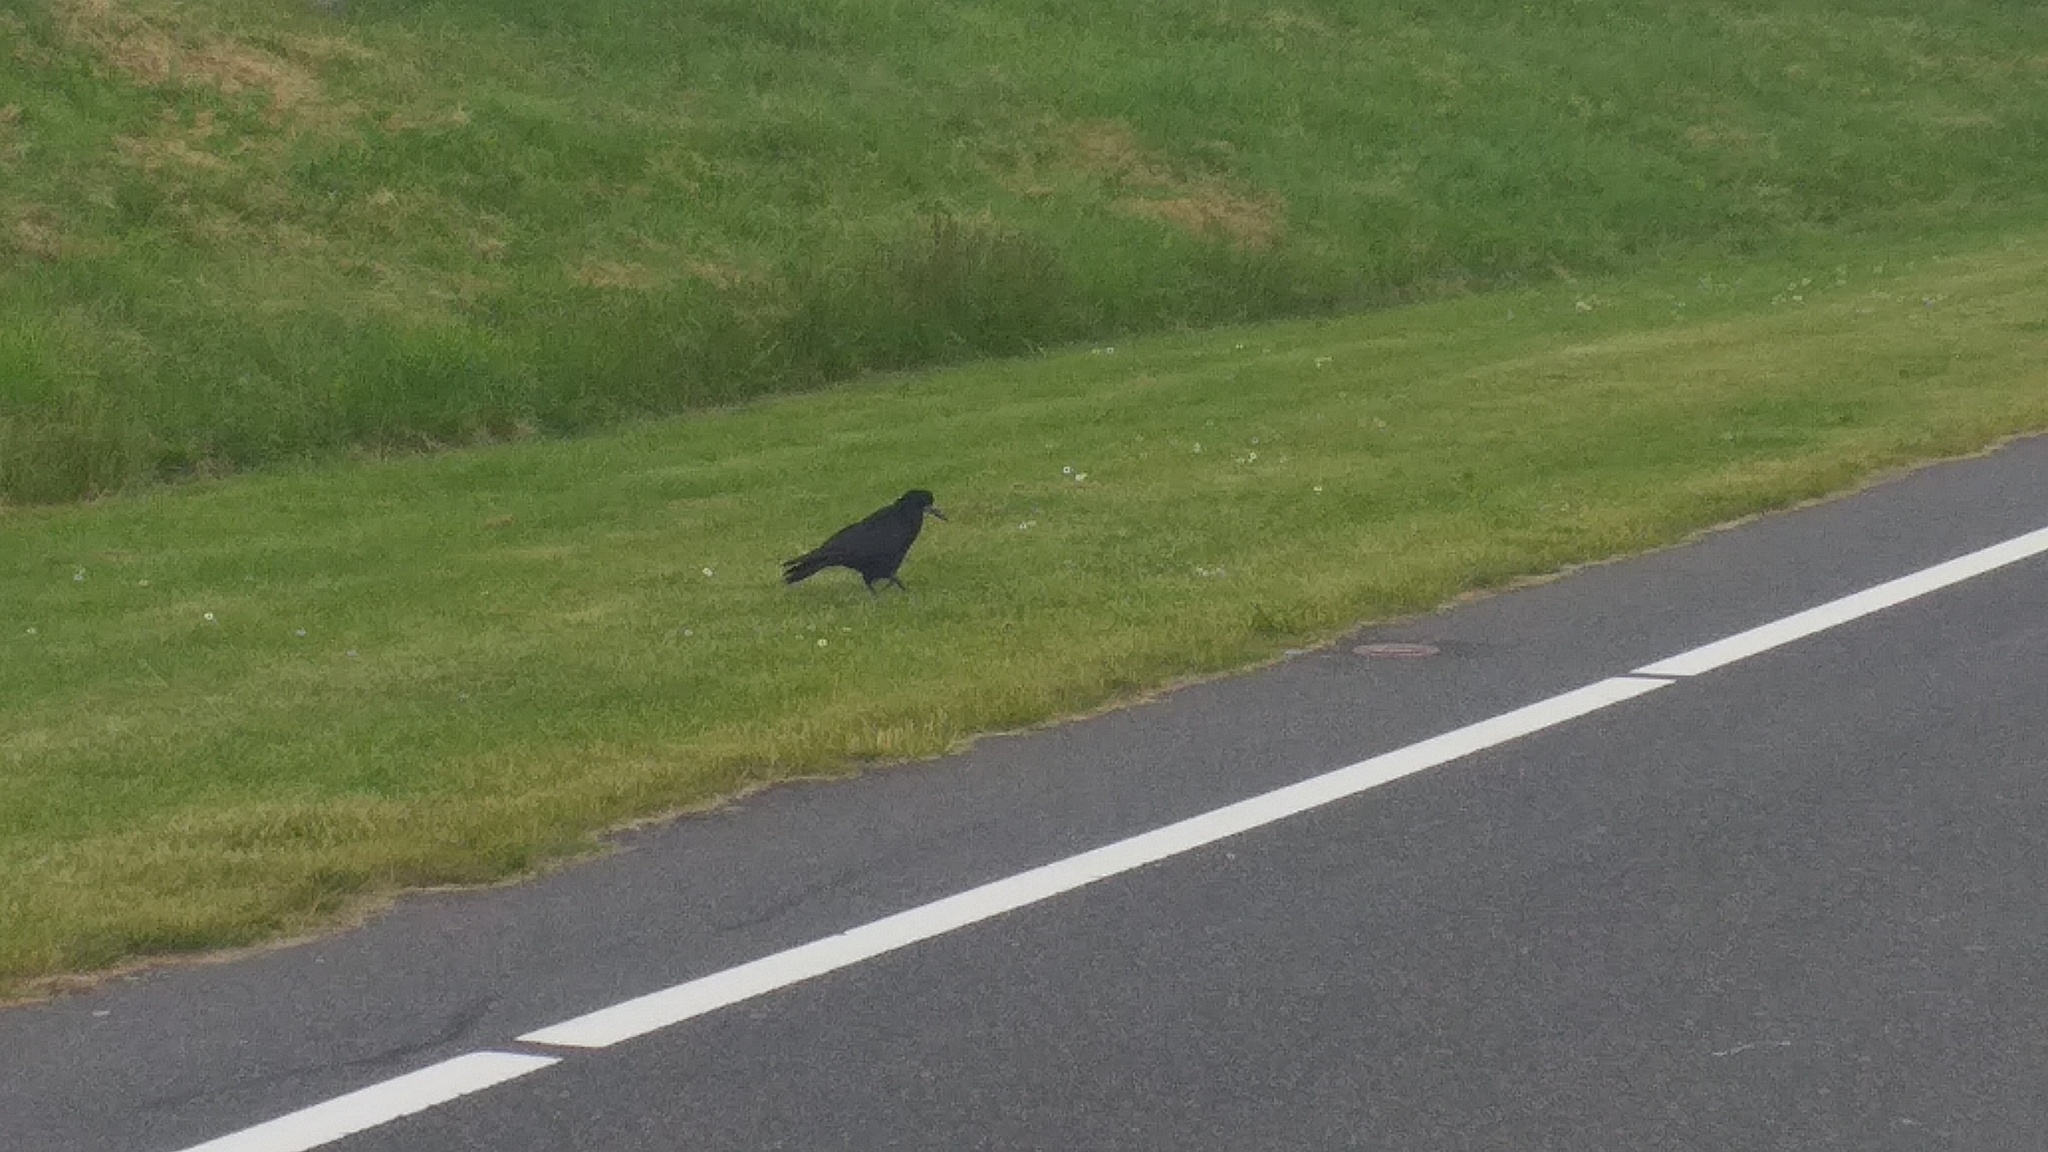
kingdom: Animalia
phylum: Chordata
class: Aves
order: Passeriformes
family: Corvidae
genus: Corvus
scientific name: Corvus frugilegus
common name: Rook
